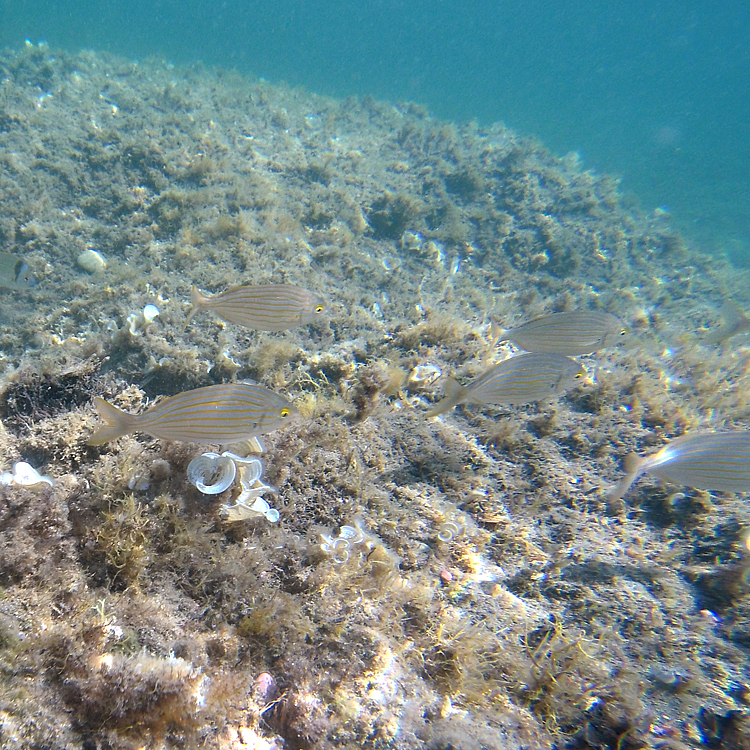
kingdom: Animalia
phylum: Chordata
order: Perciformes
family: Sparidae
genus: Sarpa
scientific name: Sarpa salpa
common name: Salema
